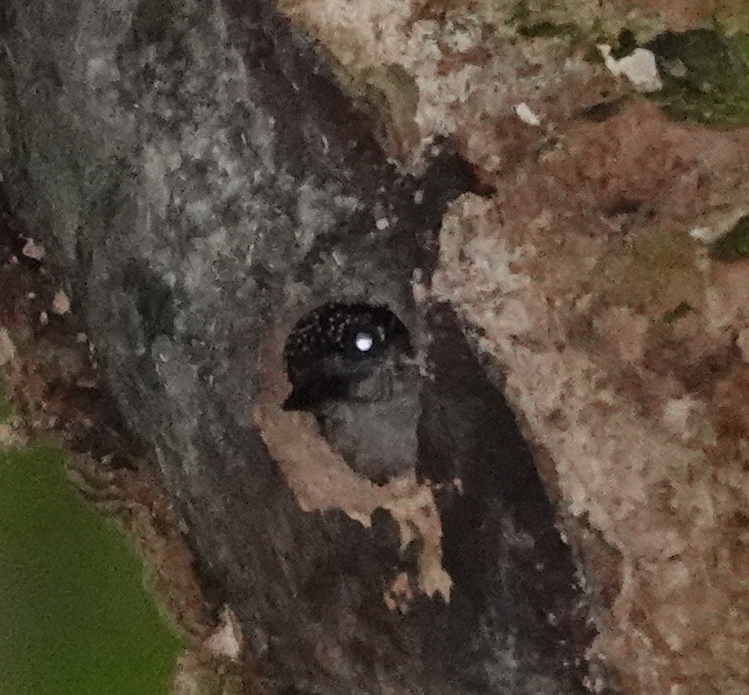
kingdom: Animalia
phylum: Chordata
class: Aves
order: Piciformes
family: Picidae
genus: Picumnus
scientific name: Picumnus granadensis
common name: Greyish piculet
